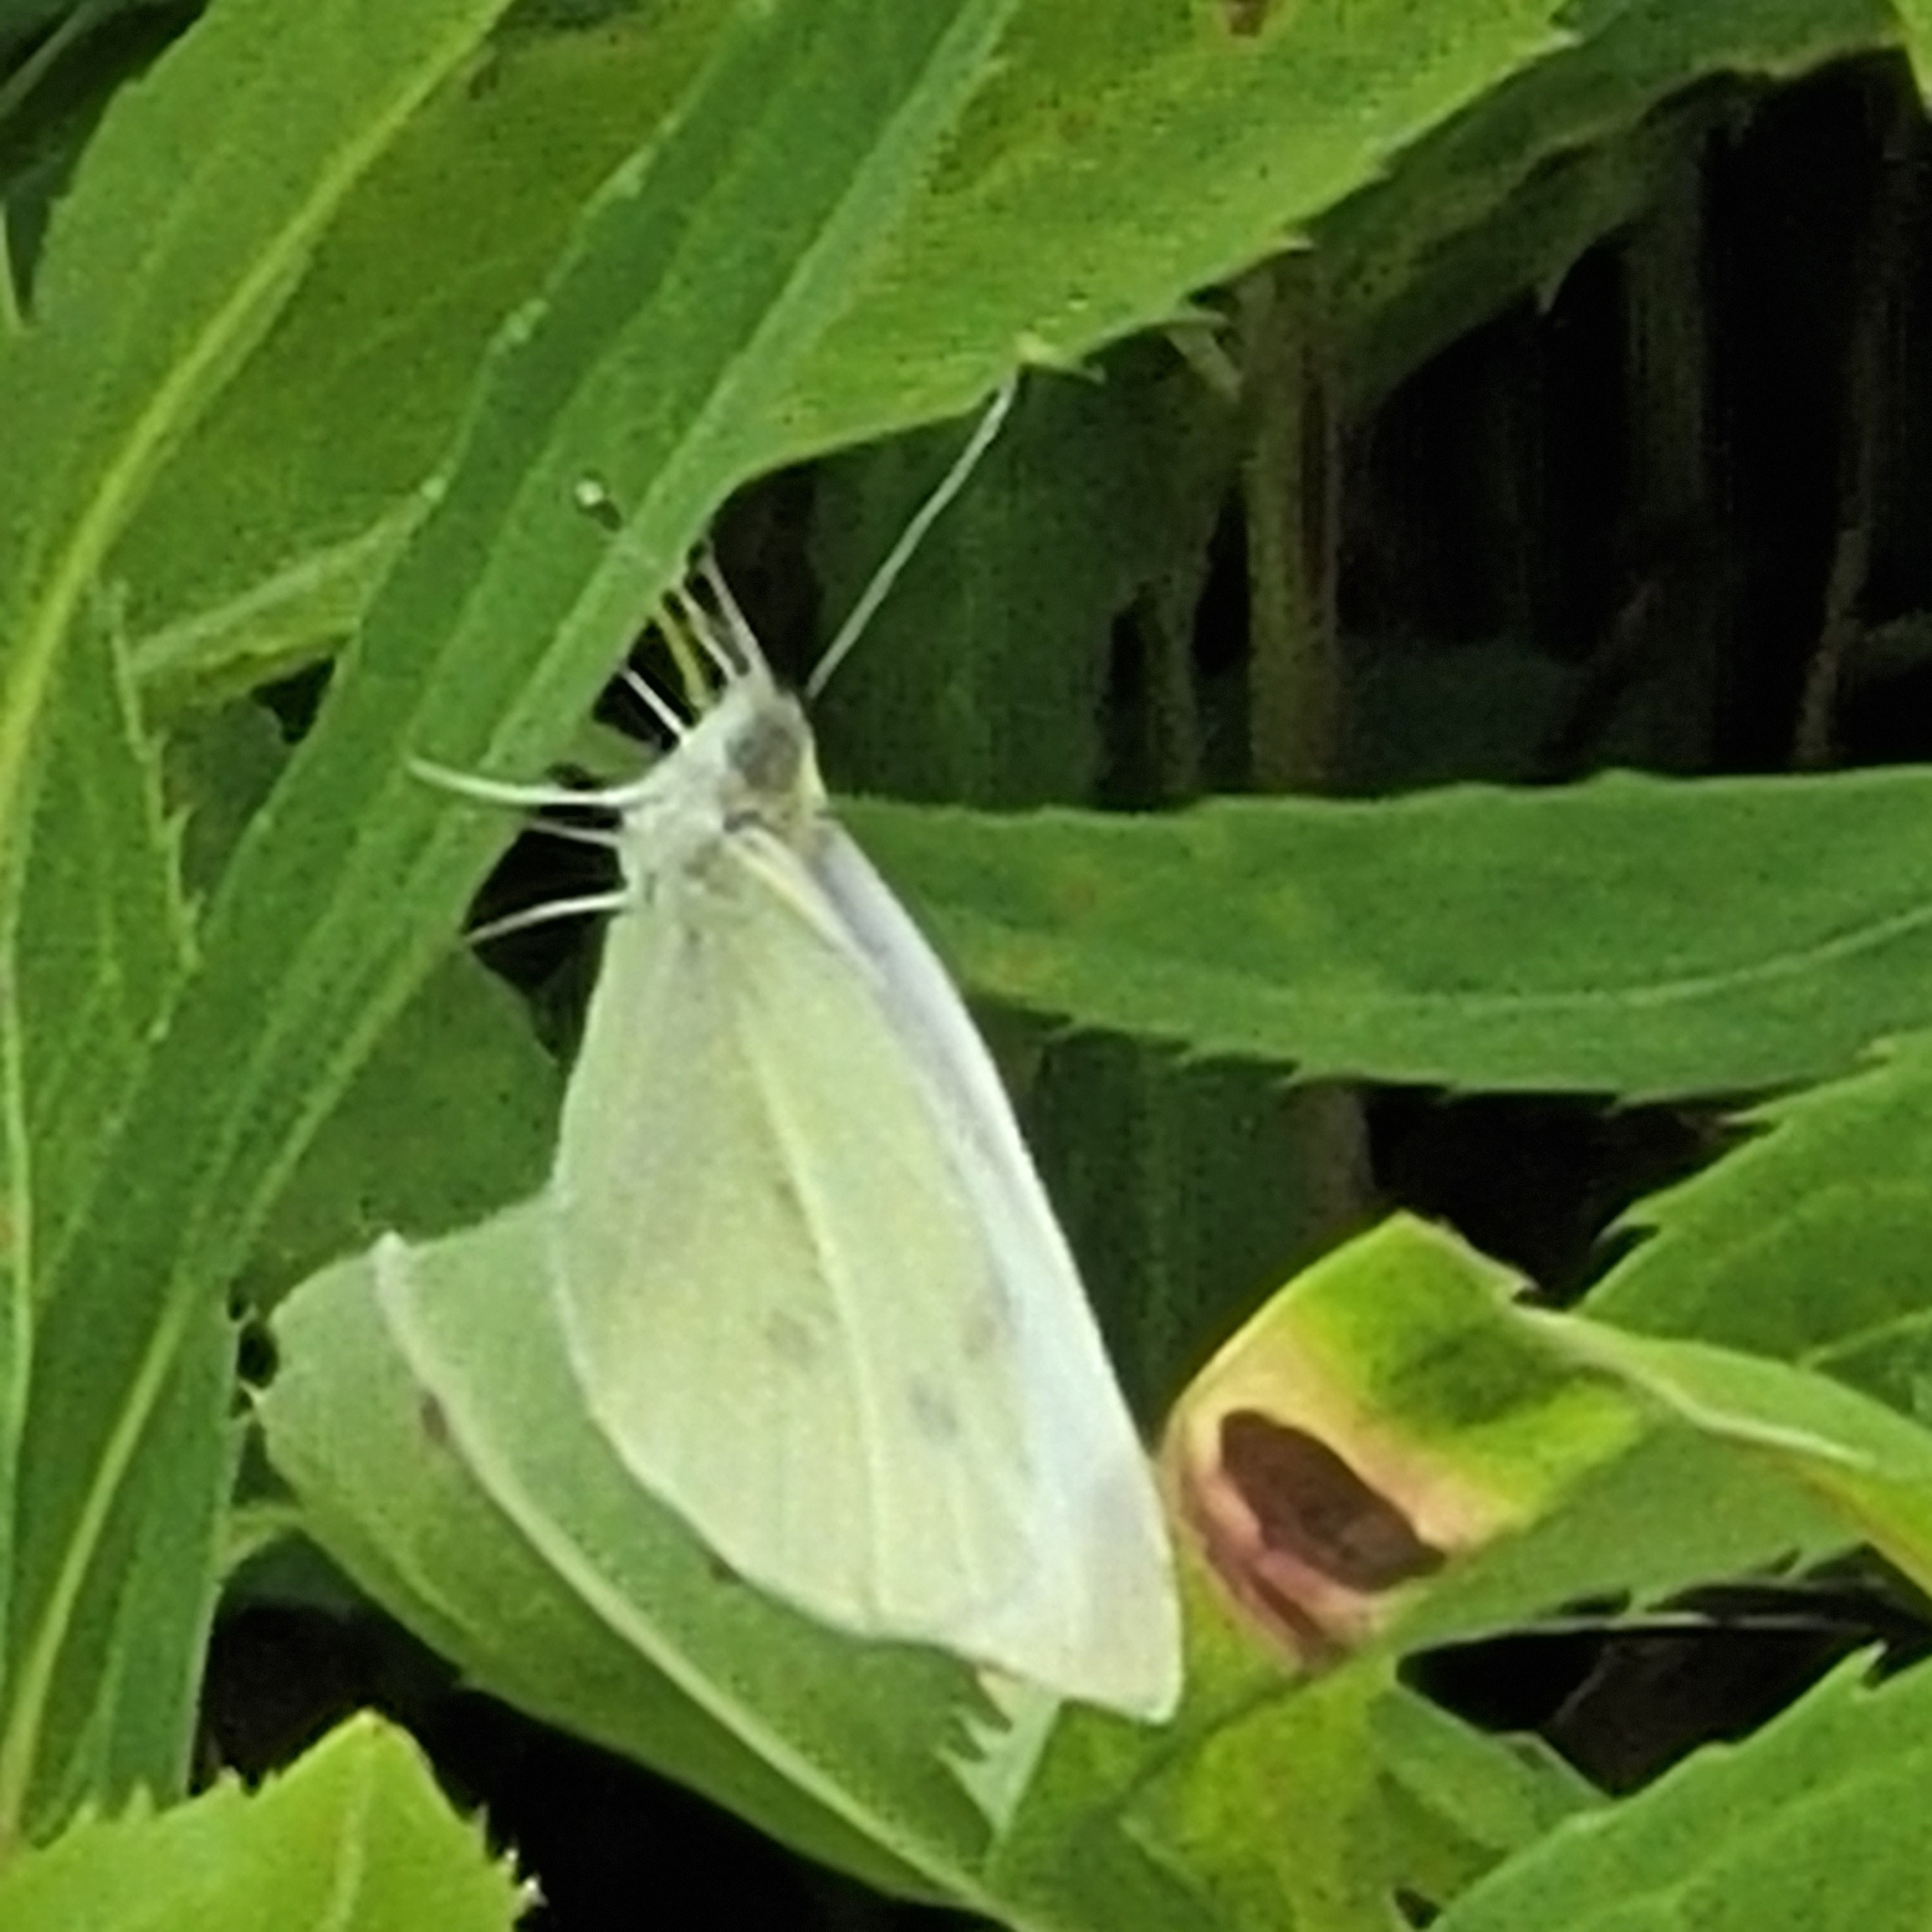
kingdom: Animalia
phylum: Arthropoda
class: Insecta
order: Lepidoptera
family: Pieridae
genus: Pieris
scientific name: Pieris rapae
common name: Small white
